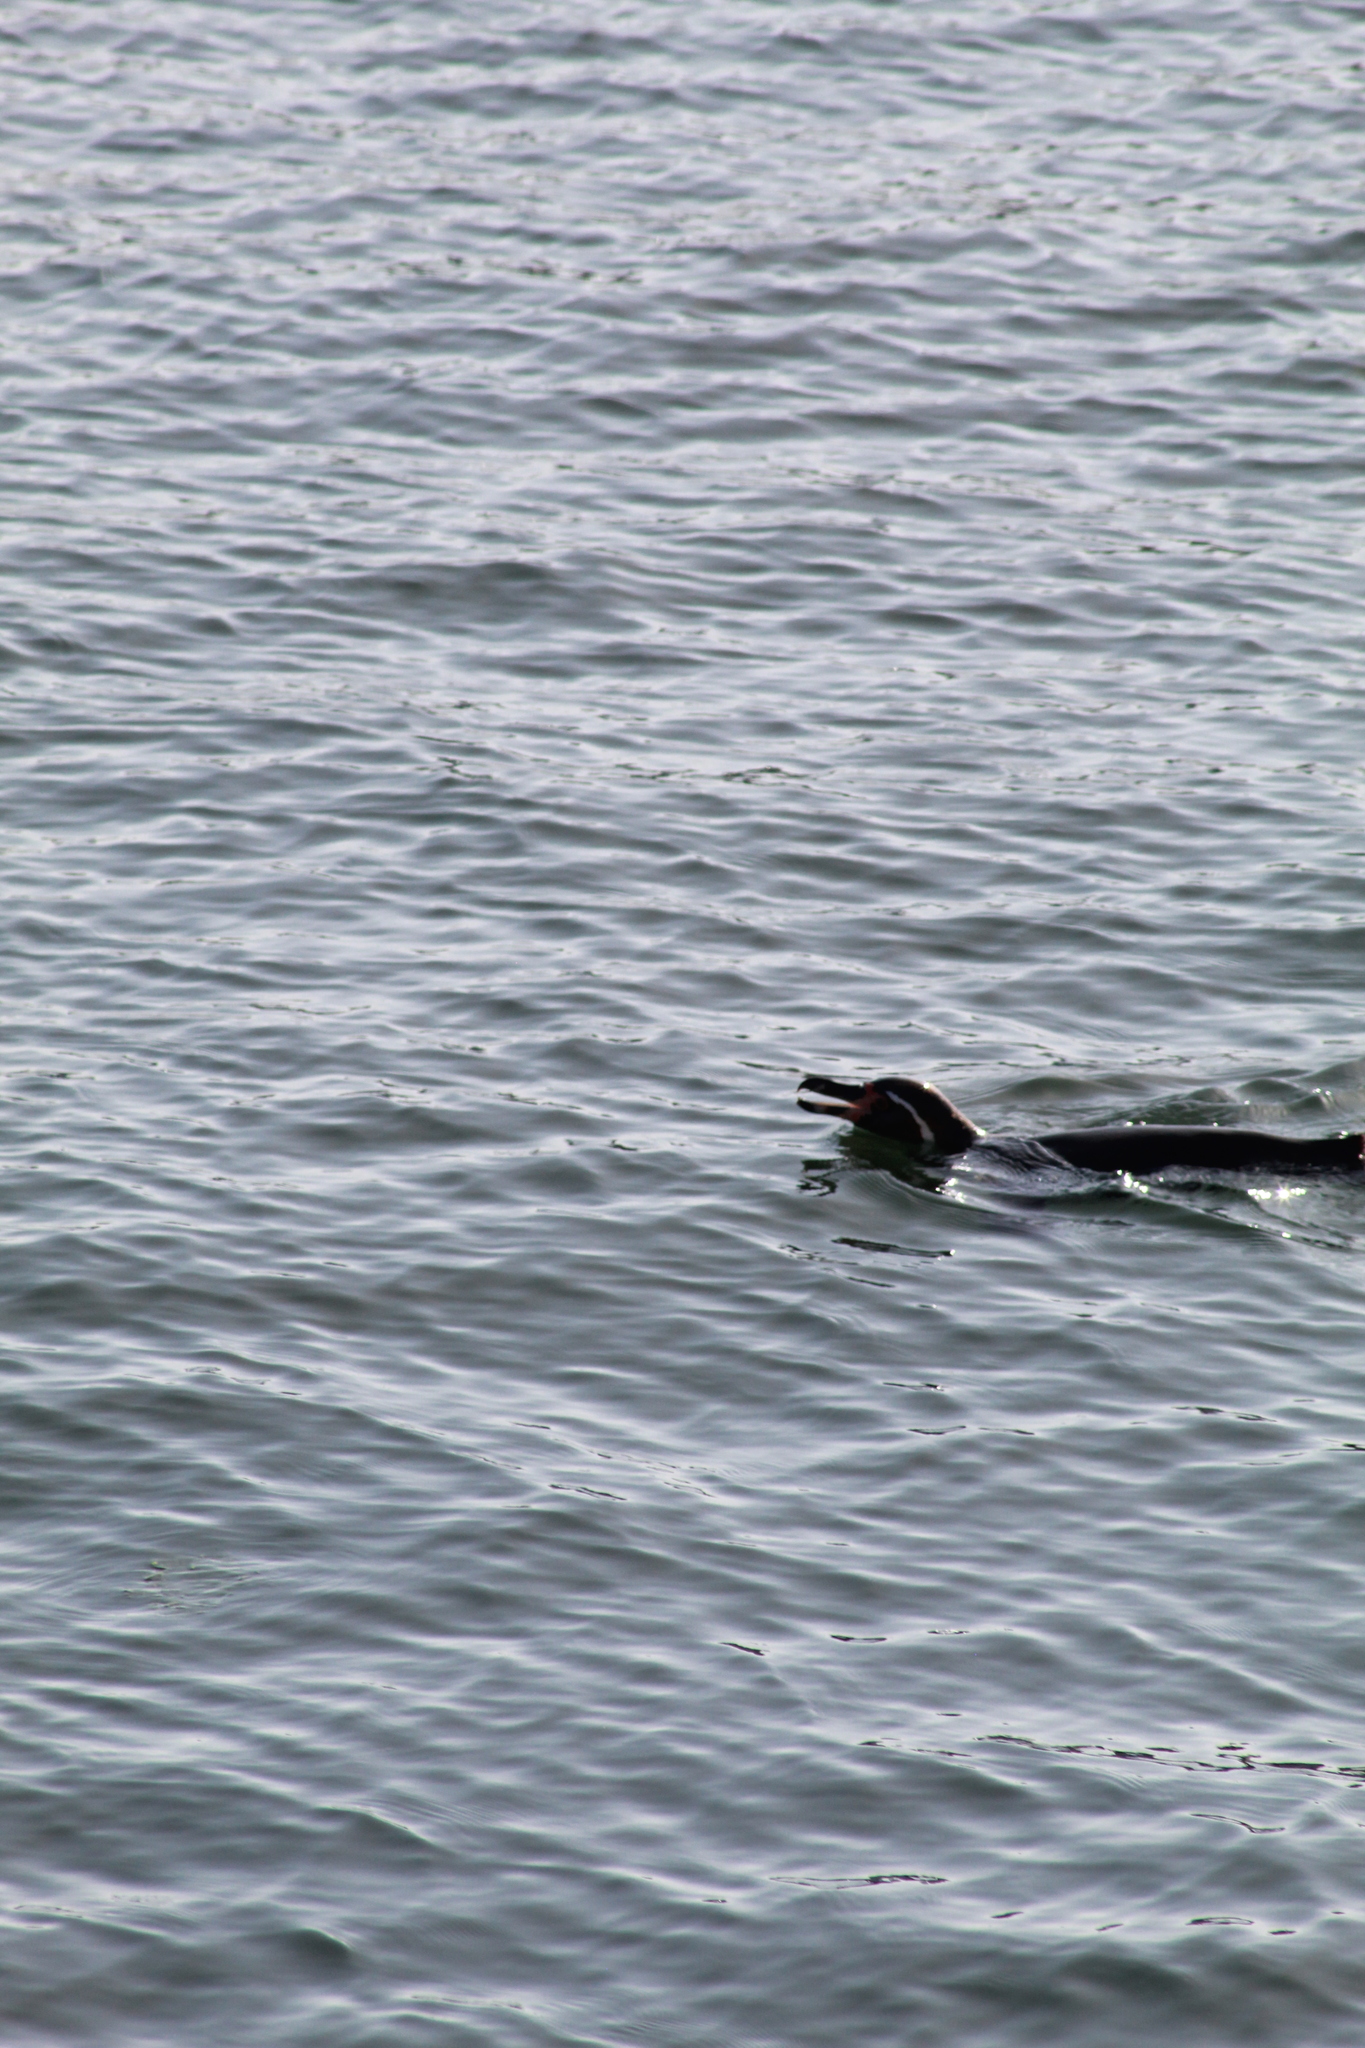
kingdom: Animalia
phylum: Chordata
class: Aves
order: Sphenisciformes
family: Spheniscidae
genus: Spheniscus
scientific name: Spheniscus humboldti
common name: Humboldt penguin
